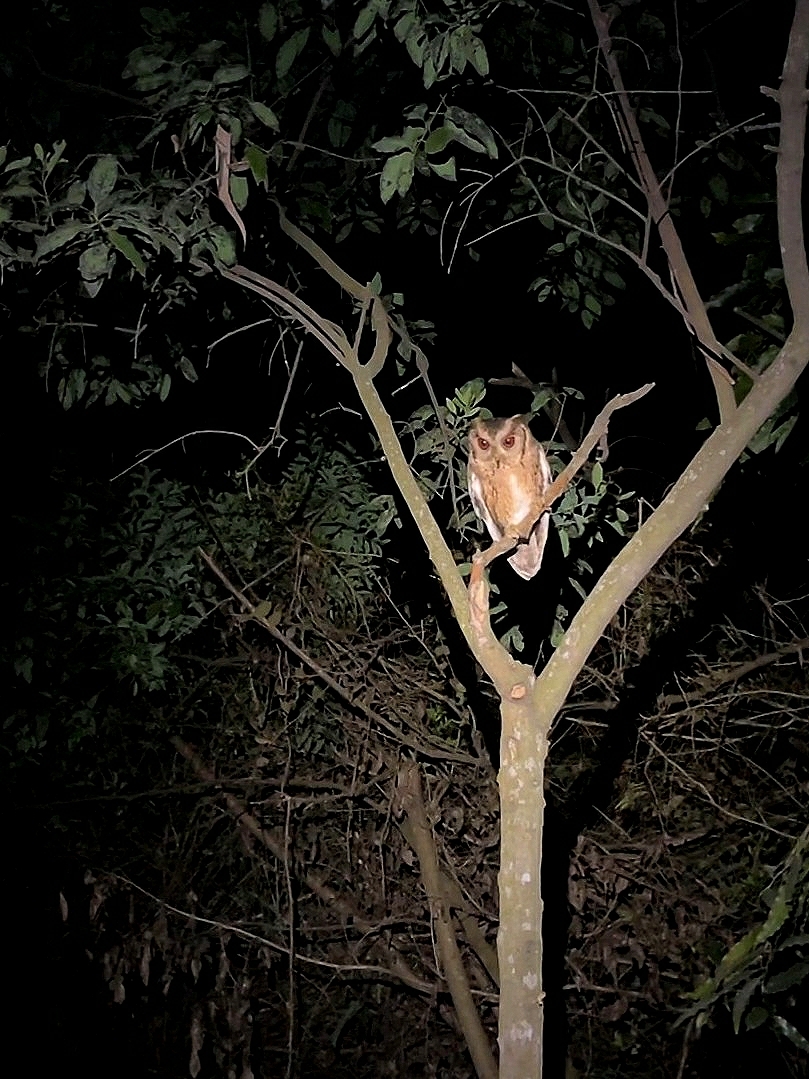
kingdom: Animalia
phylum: Chordata
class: Aves
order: Strigiformes
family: Strigidae
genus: Otus
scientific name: Otus bakkamoena
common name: Indian scops owl
